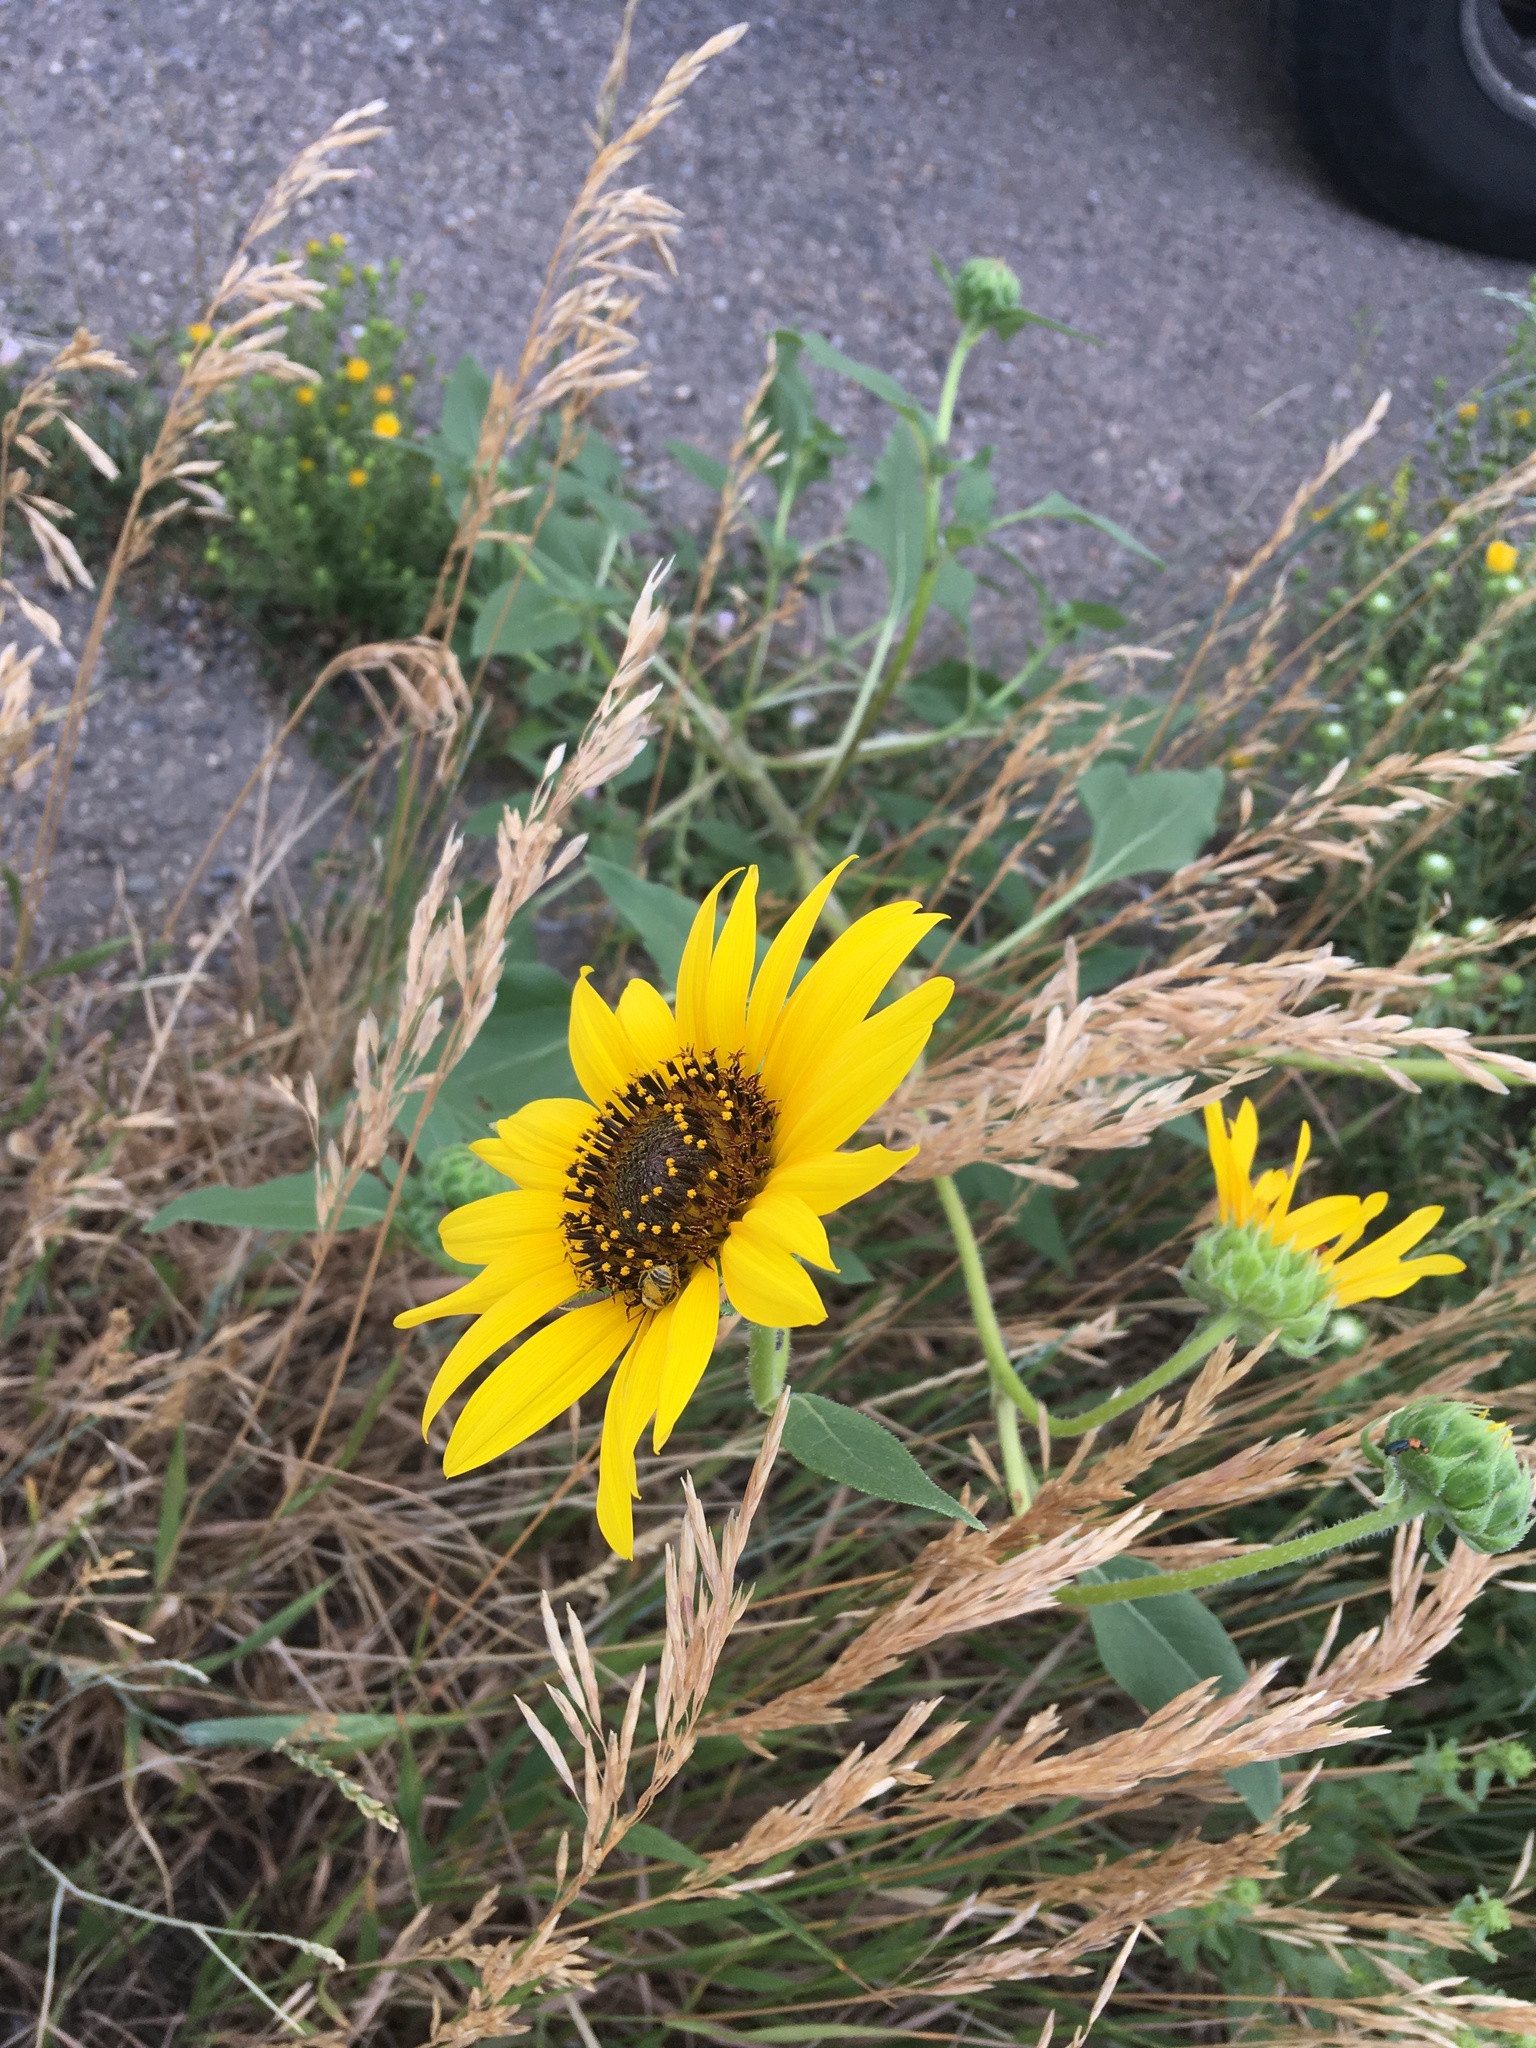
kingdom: Plantae
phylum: Tracheophyta
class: Magnoliopsida
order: Asterales
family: Asteraceae
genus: Helianthus
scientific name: Helianthus annuus
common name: Sunflower
